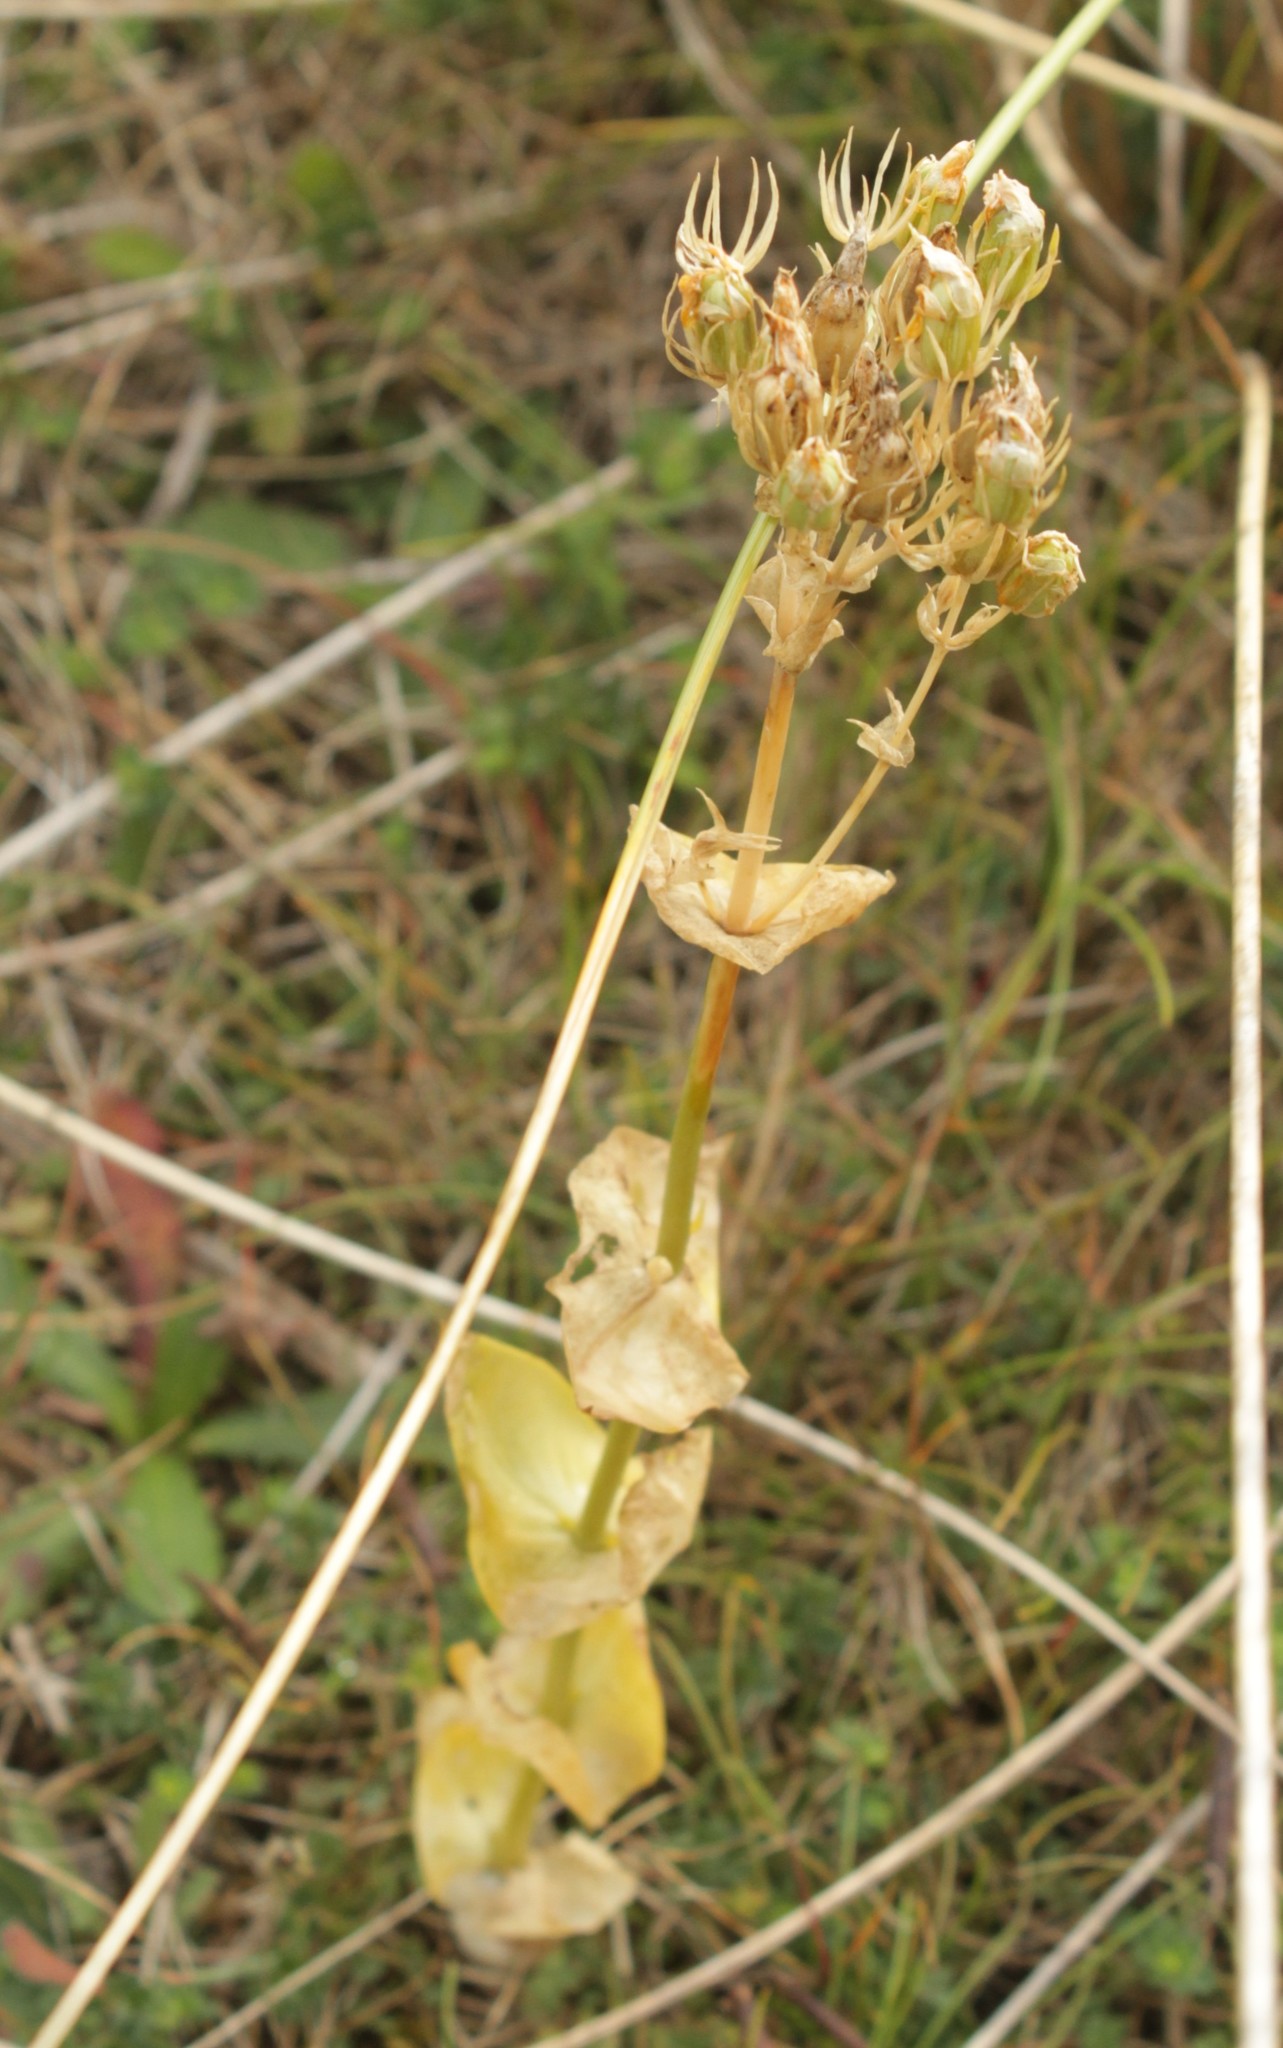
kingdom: Plantae
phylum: Tracheophyta
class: Magnoliopsida
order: Gentianales
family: Gentianaceae
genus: Blackstonia
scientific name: Blackstonia perfoliata
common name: Yellow-wort
